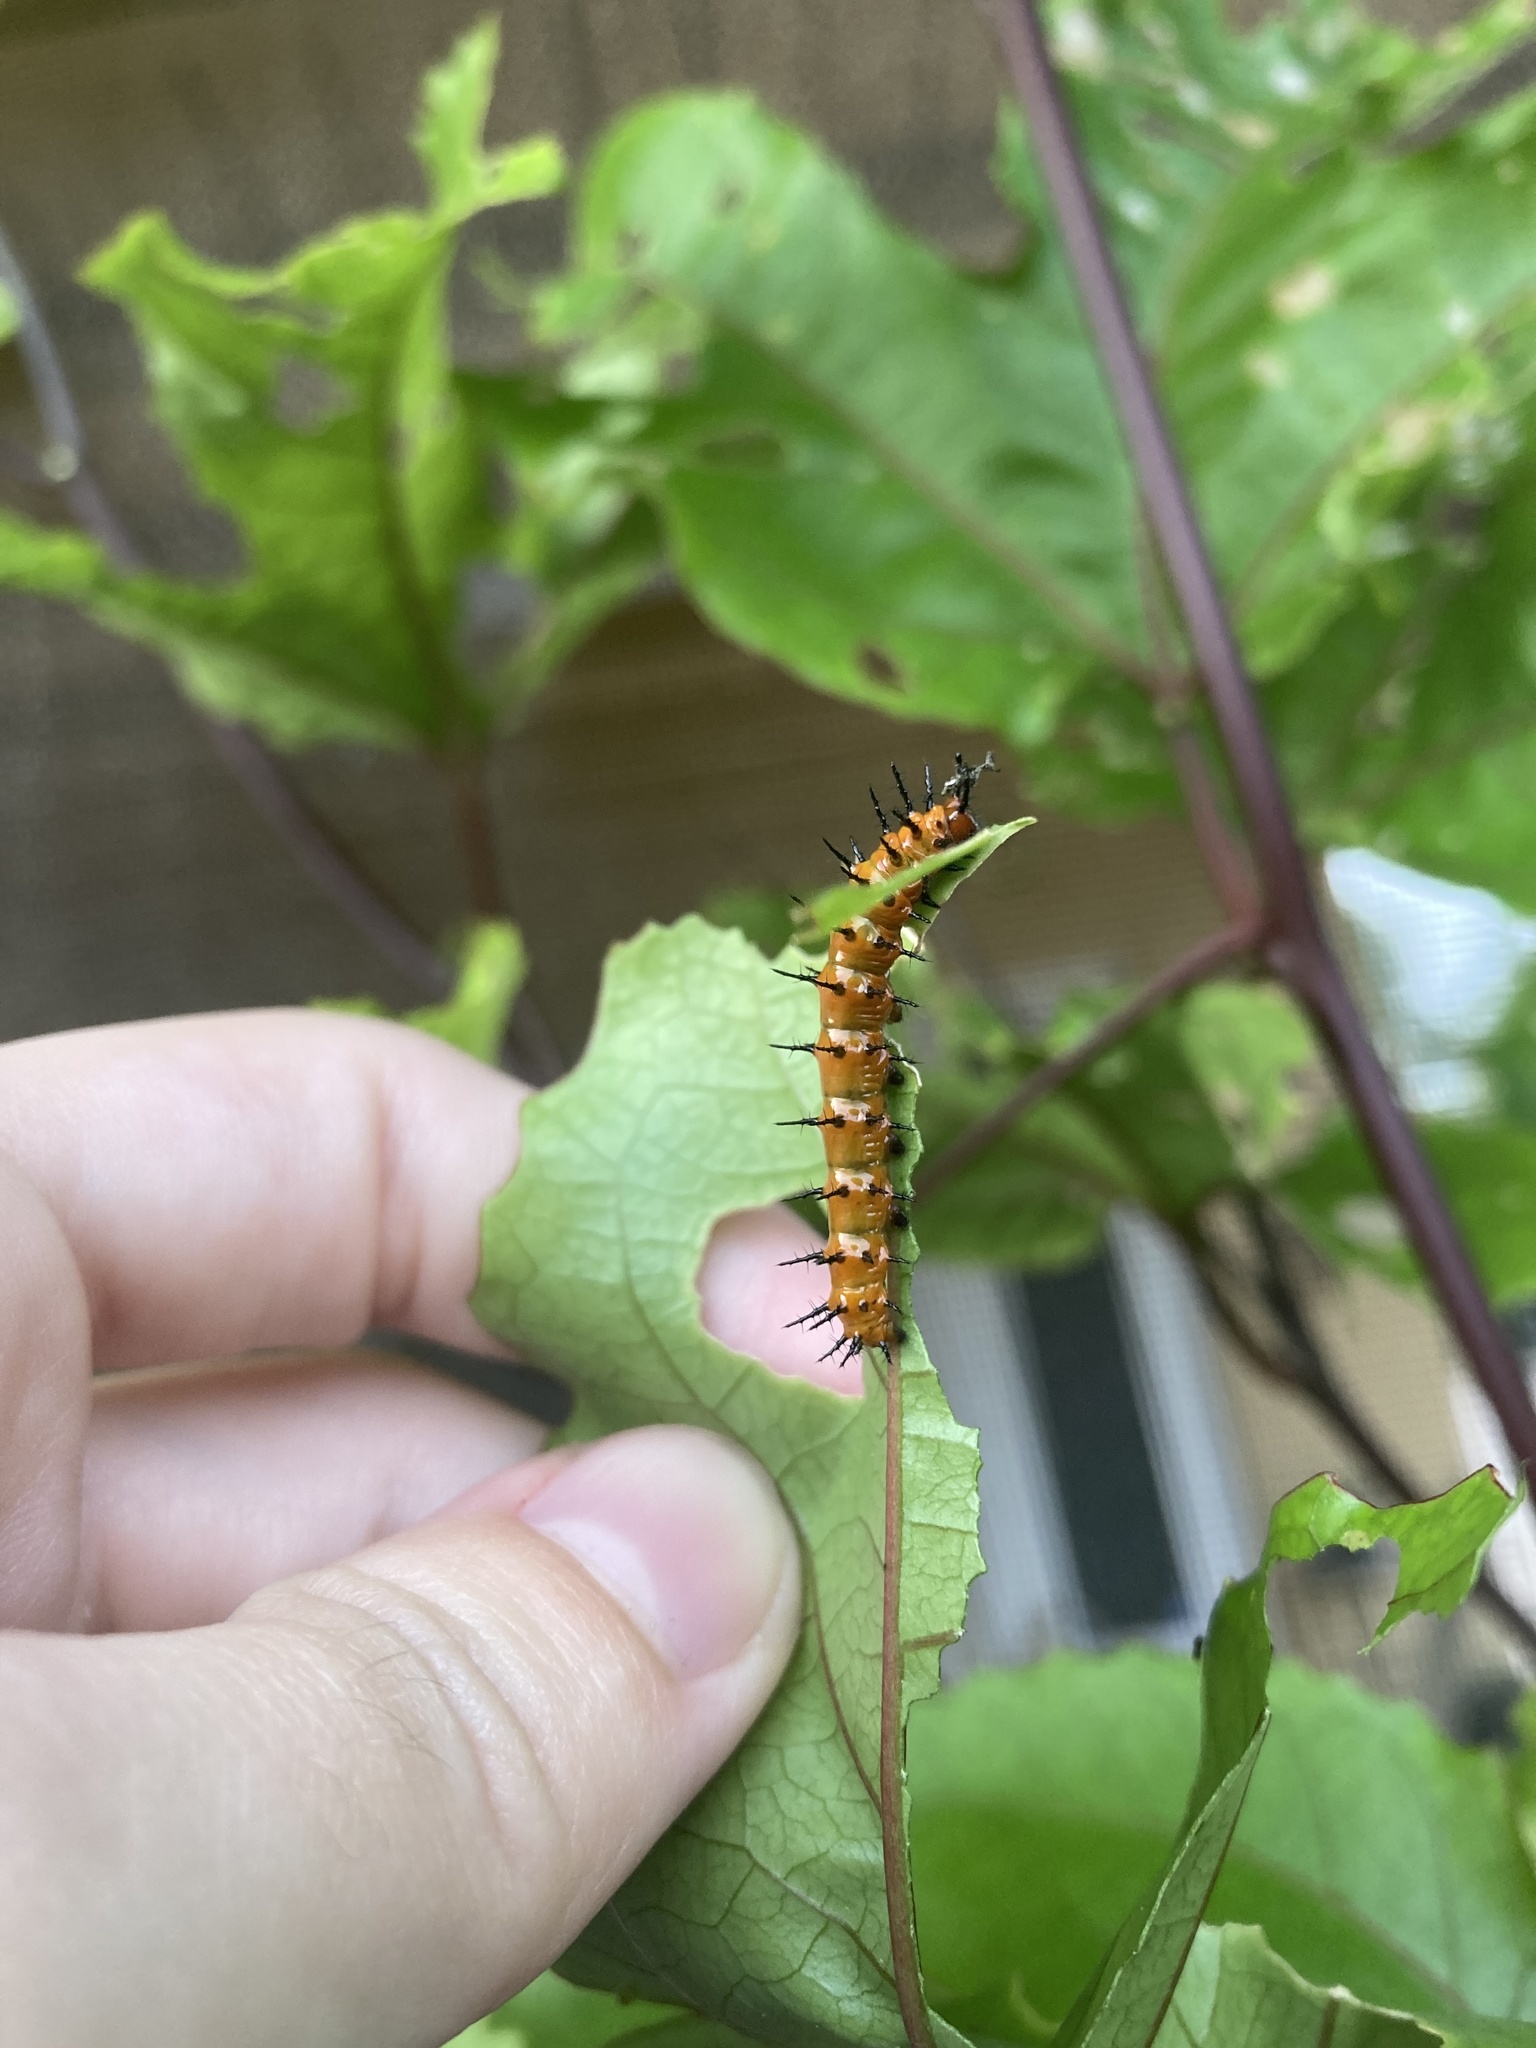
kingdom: Animalia
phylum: Arthropoda
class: Insecta
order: Lepidoptera
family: Nymphalidae
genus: Dione
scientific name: Dione vanillae
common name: Gulf fritillary
